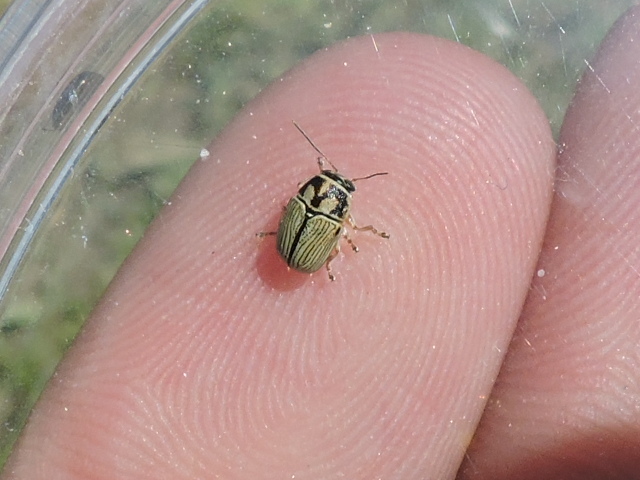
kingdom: Animalia
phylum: Arthropoda
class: Insecta
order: Coleoptera
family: Chrysomelidae
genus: Pachybrachis
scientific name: Pachybrachis othonus
